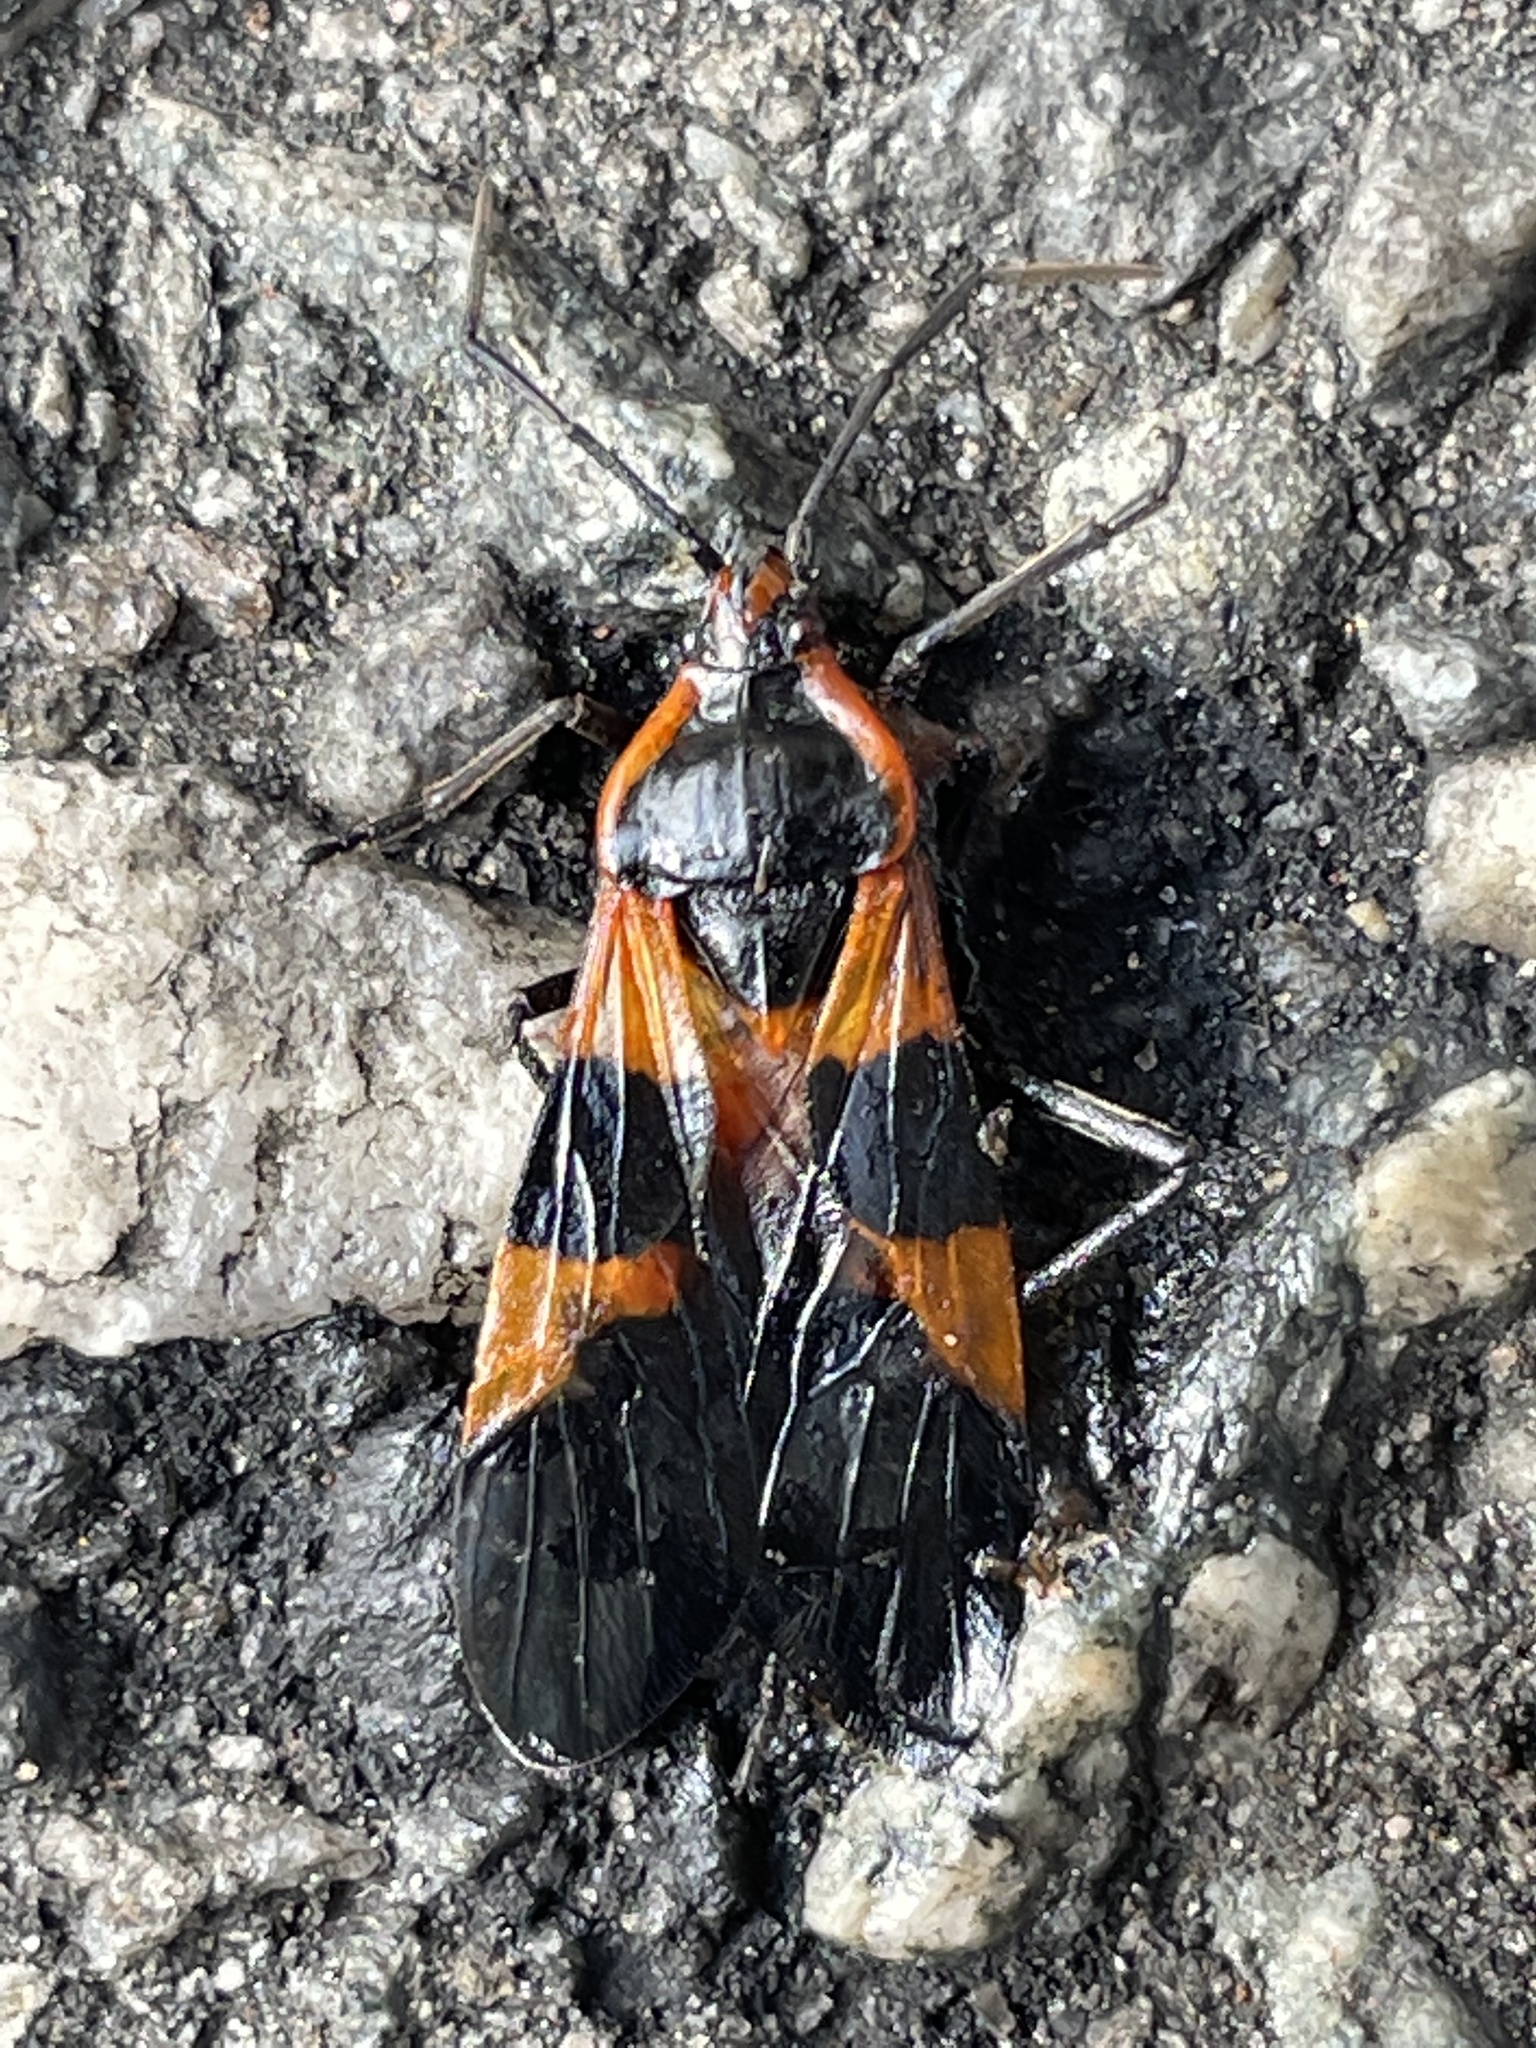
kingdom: Animalia
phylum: Arthropoda
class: Insecta
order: Hemiptera
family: Lygaeidae
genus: Oncopeltus
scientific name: Oncopeltus fasciatus
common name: Large milkweed bug
